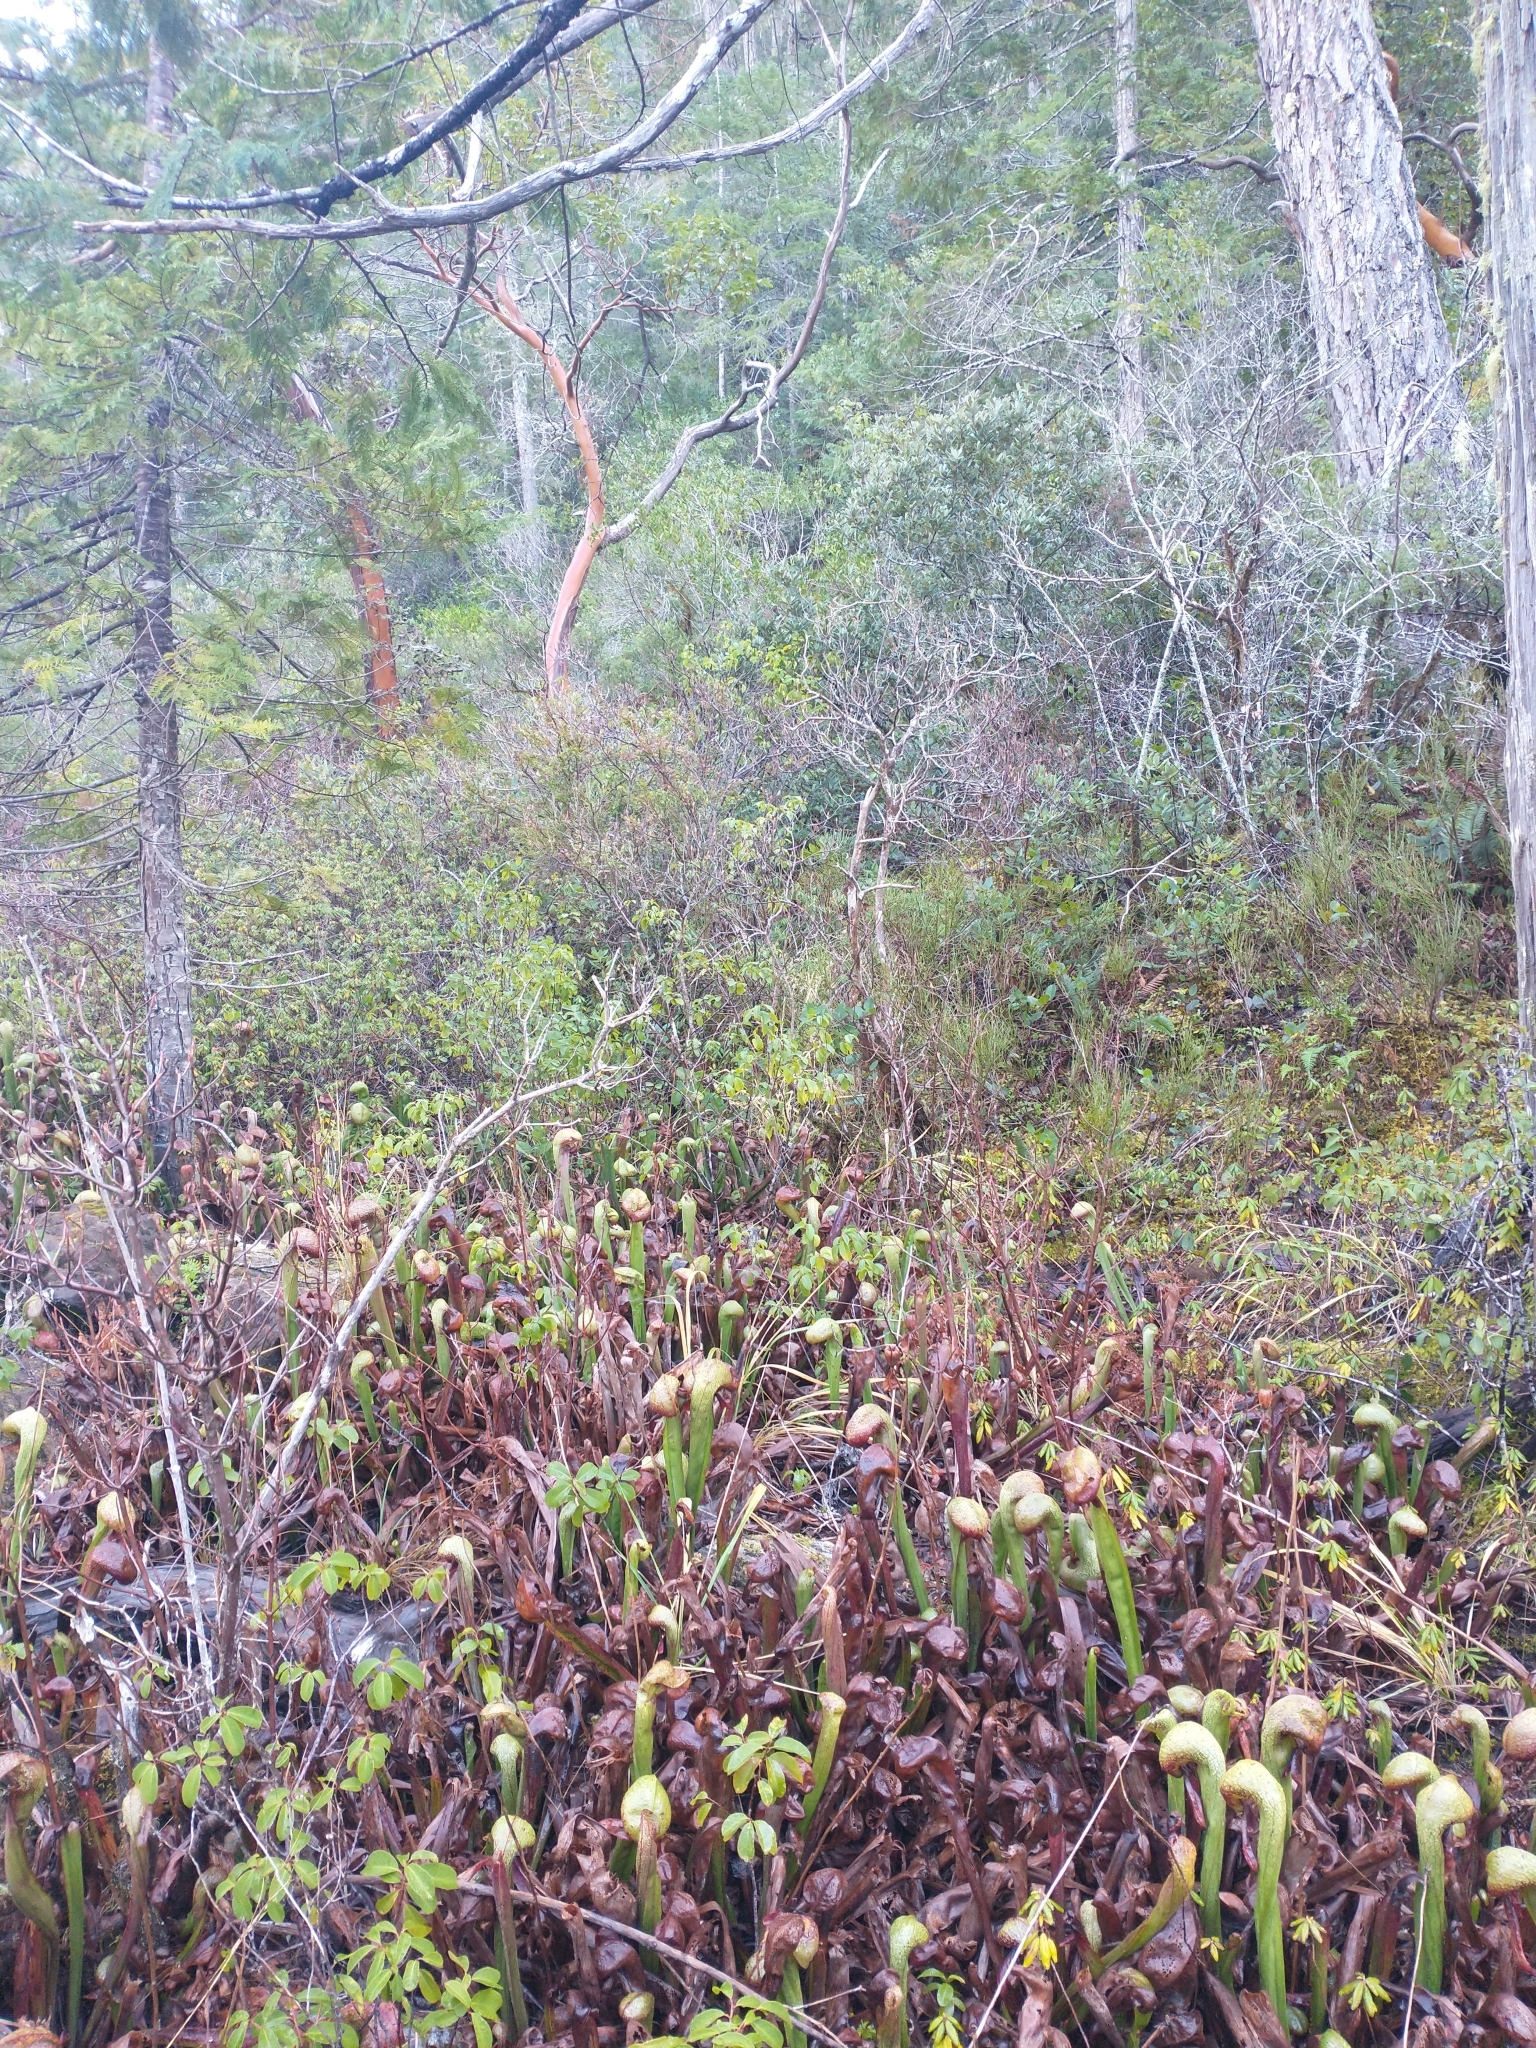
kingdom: Plantae
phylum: Tracheophyta
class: Magnoliopsida
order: Ericales
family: Sarraceniaceae
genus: Darlingtonia
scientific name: Darlingtonia californica
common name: California pitcher plant
